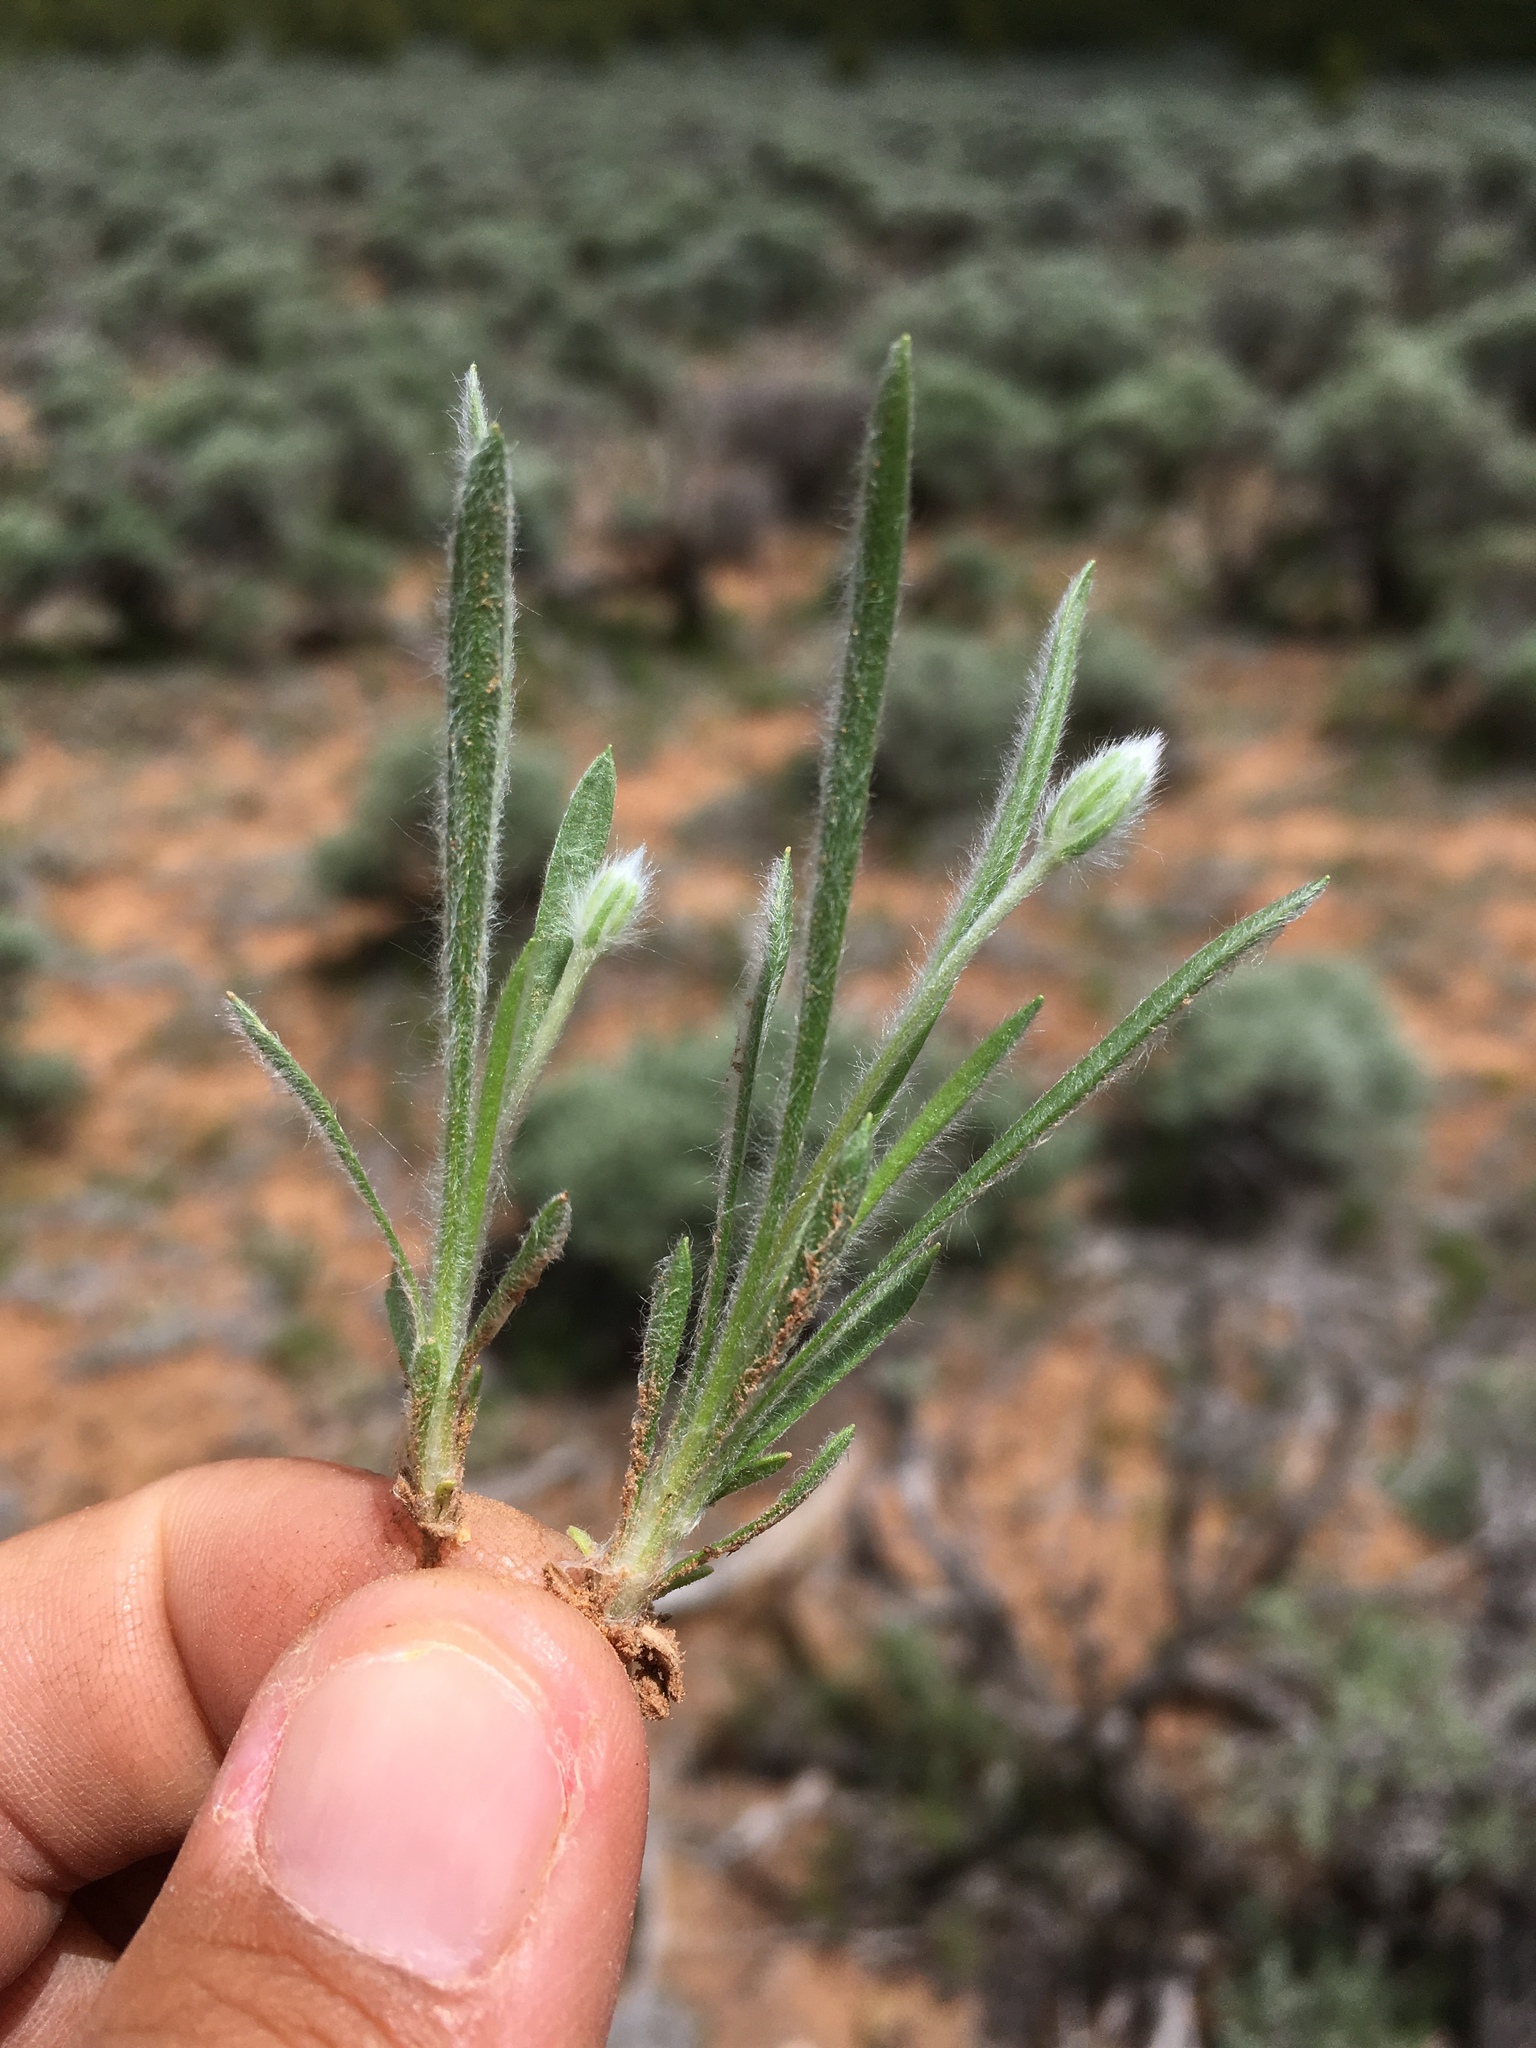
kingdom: Plantae
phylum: Tracheophyta
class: Magnoliopsida
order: Lamiales
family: Plantaginaceae
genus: Plantago
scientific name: Plantago patagonica
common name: Patagonia indian-wheat
